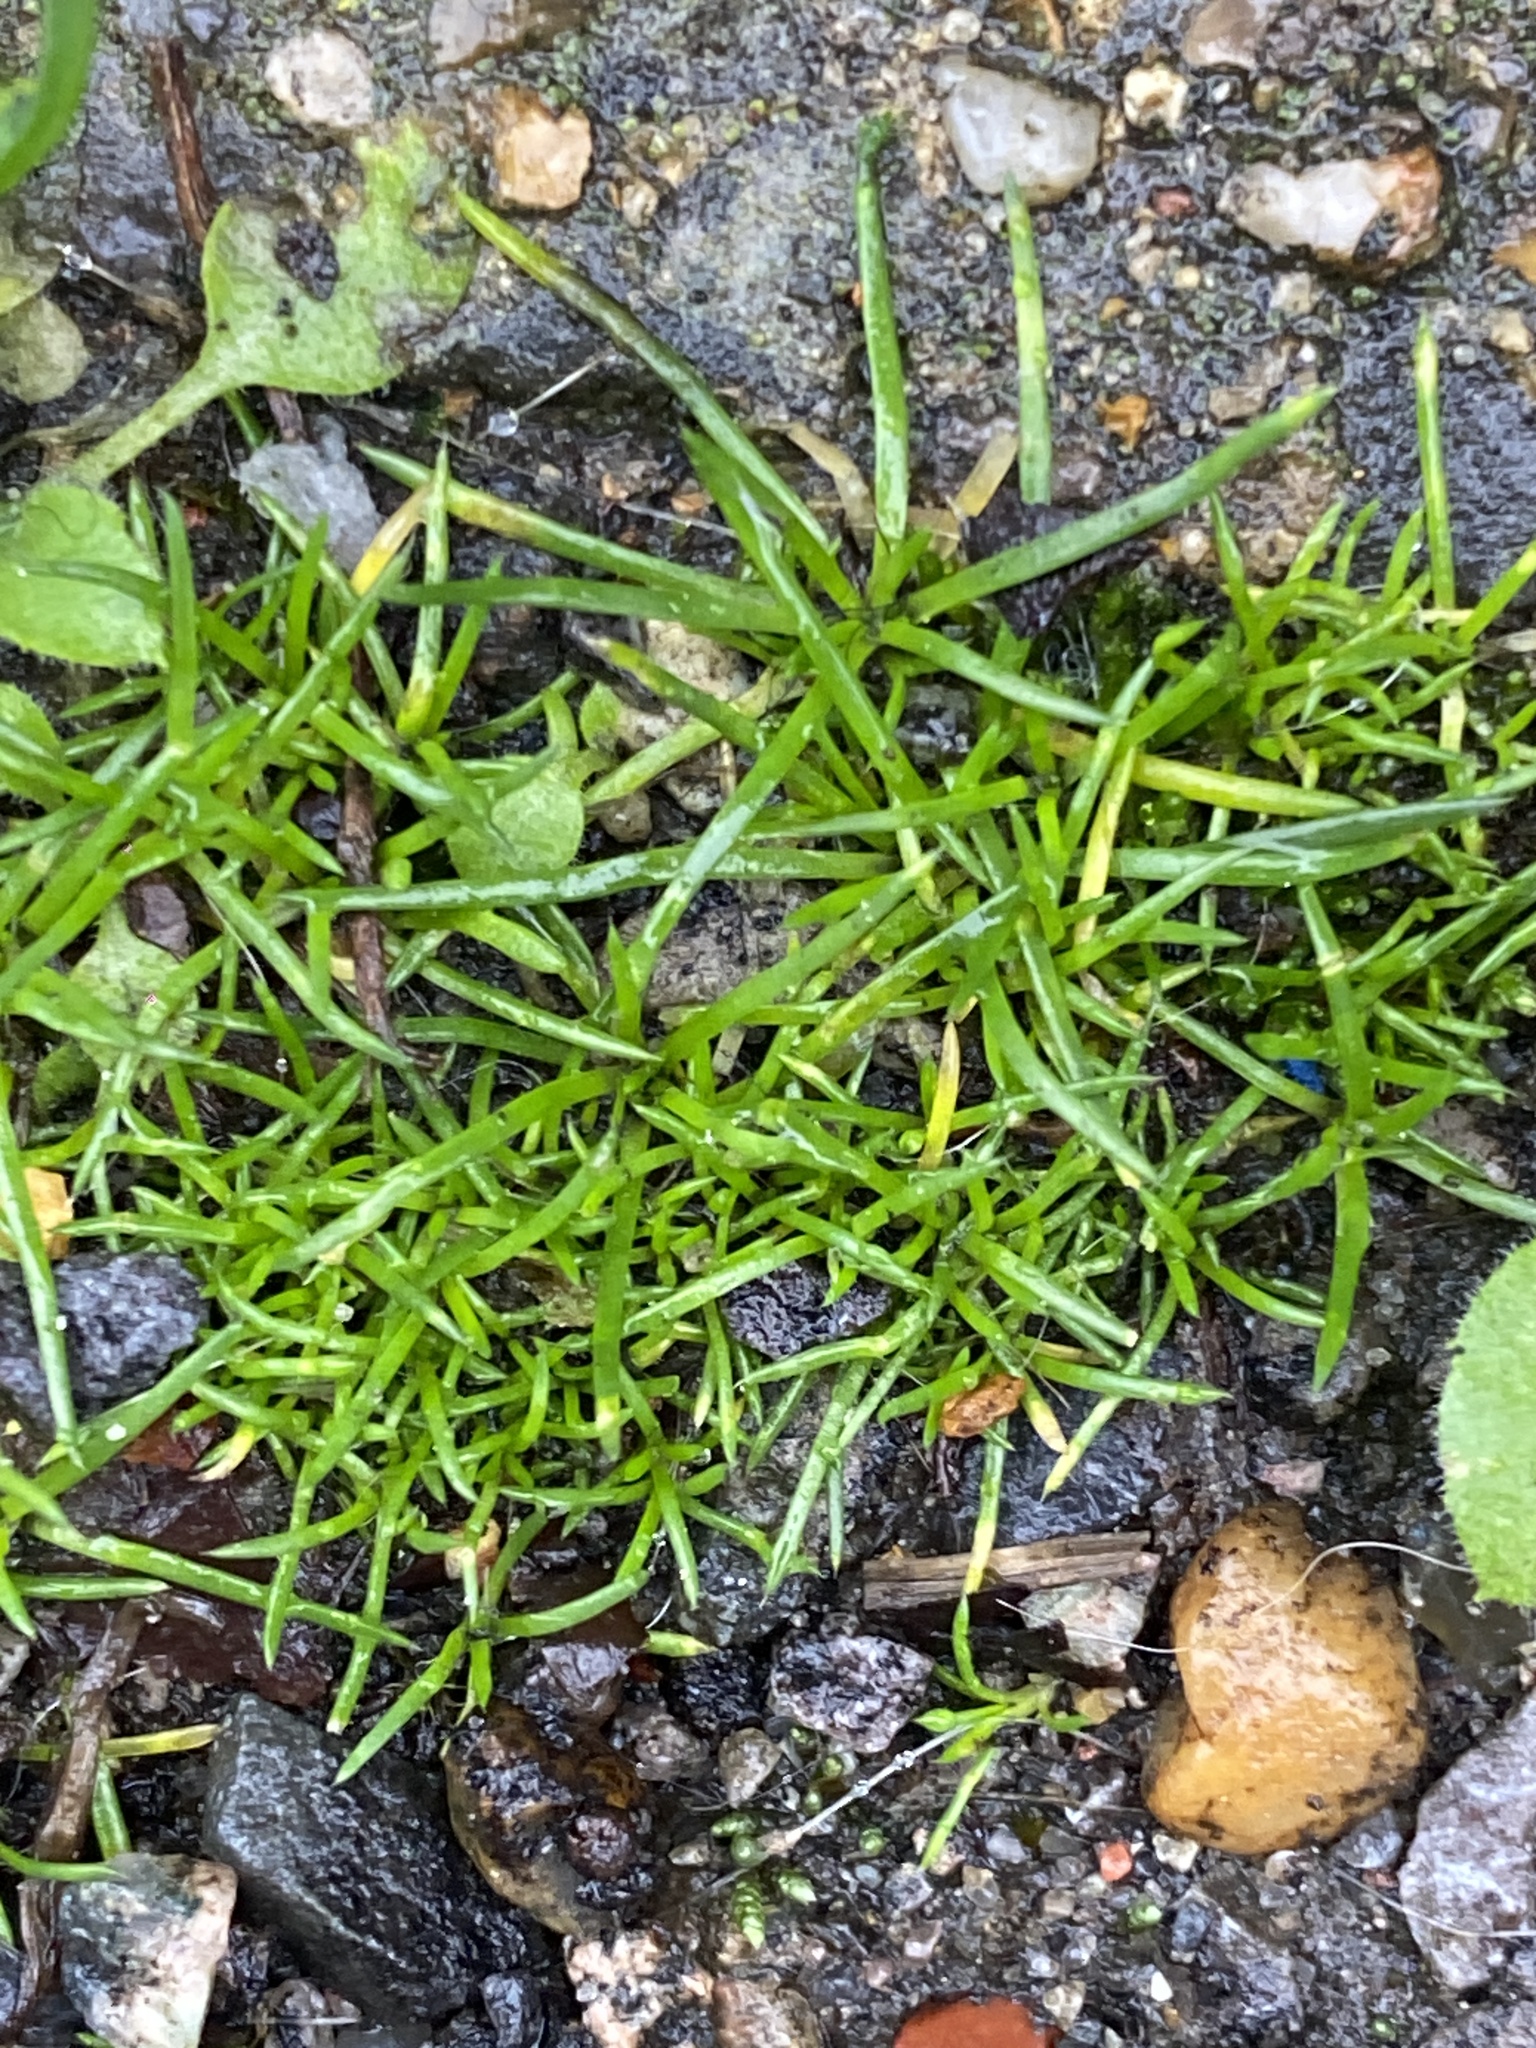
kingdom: Plantae
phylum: Tracheophyta
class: Magnoliopsida
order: Caryophyllales
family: Caryophyllaceae
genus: Sagina
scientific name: Sagina procumbens
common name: Procumbent pearlwort
